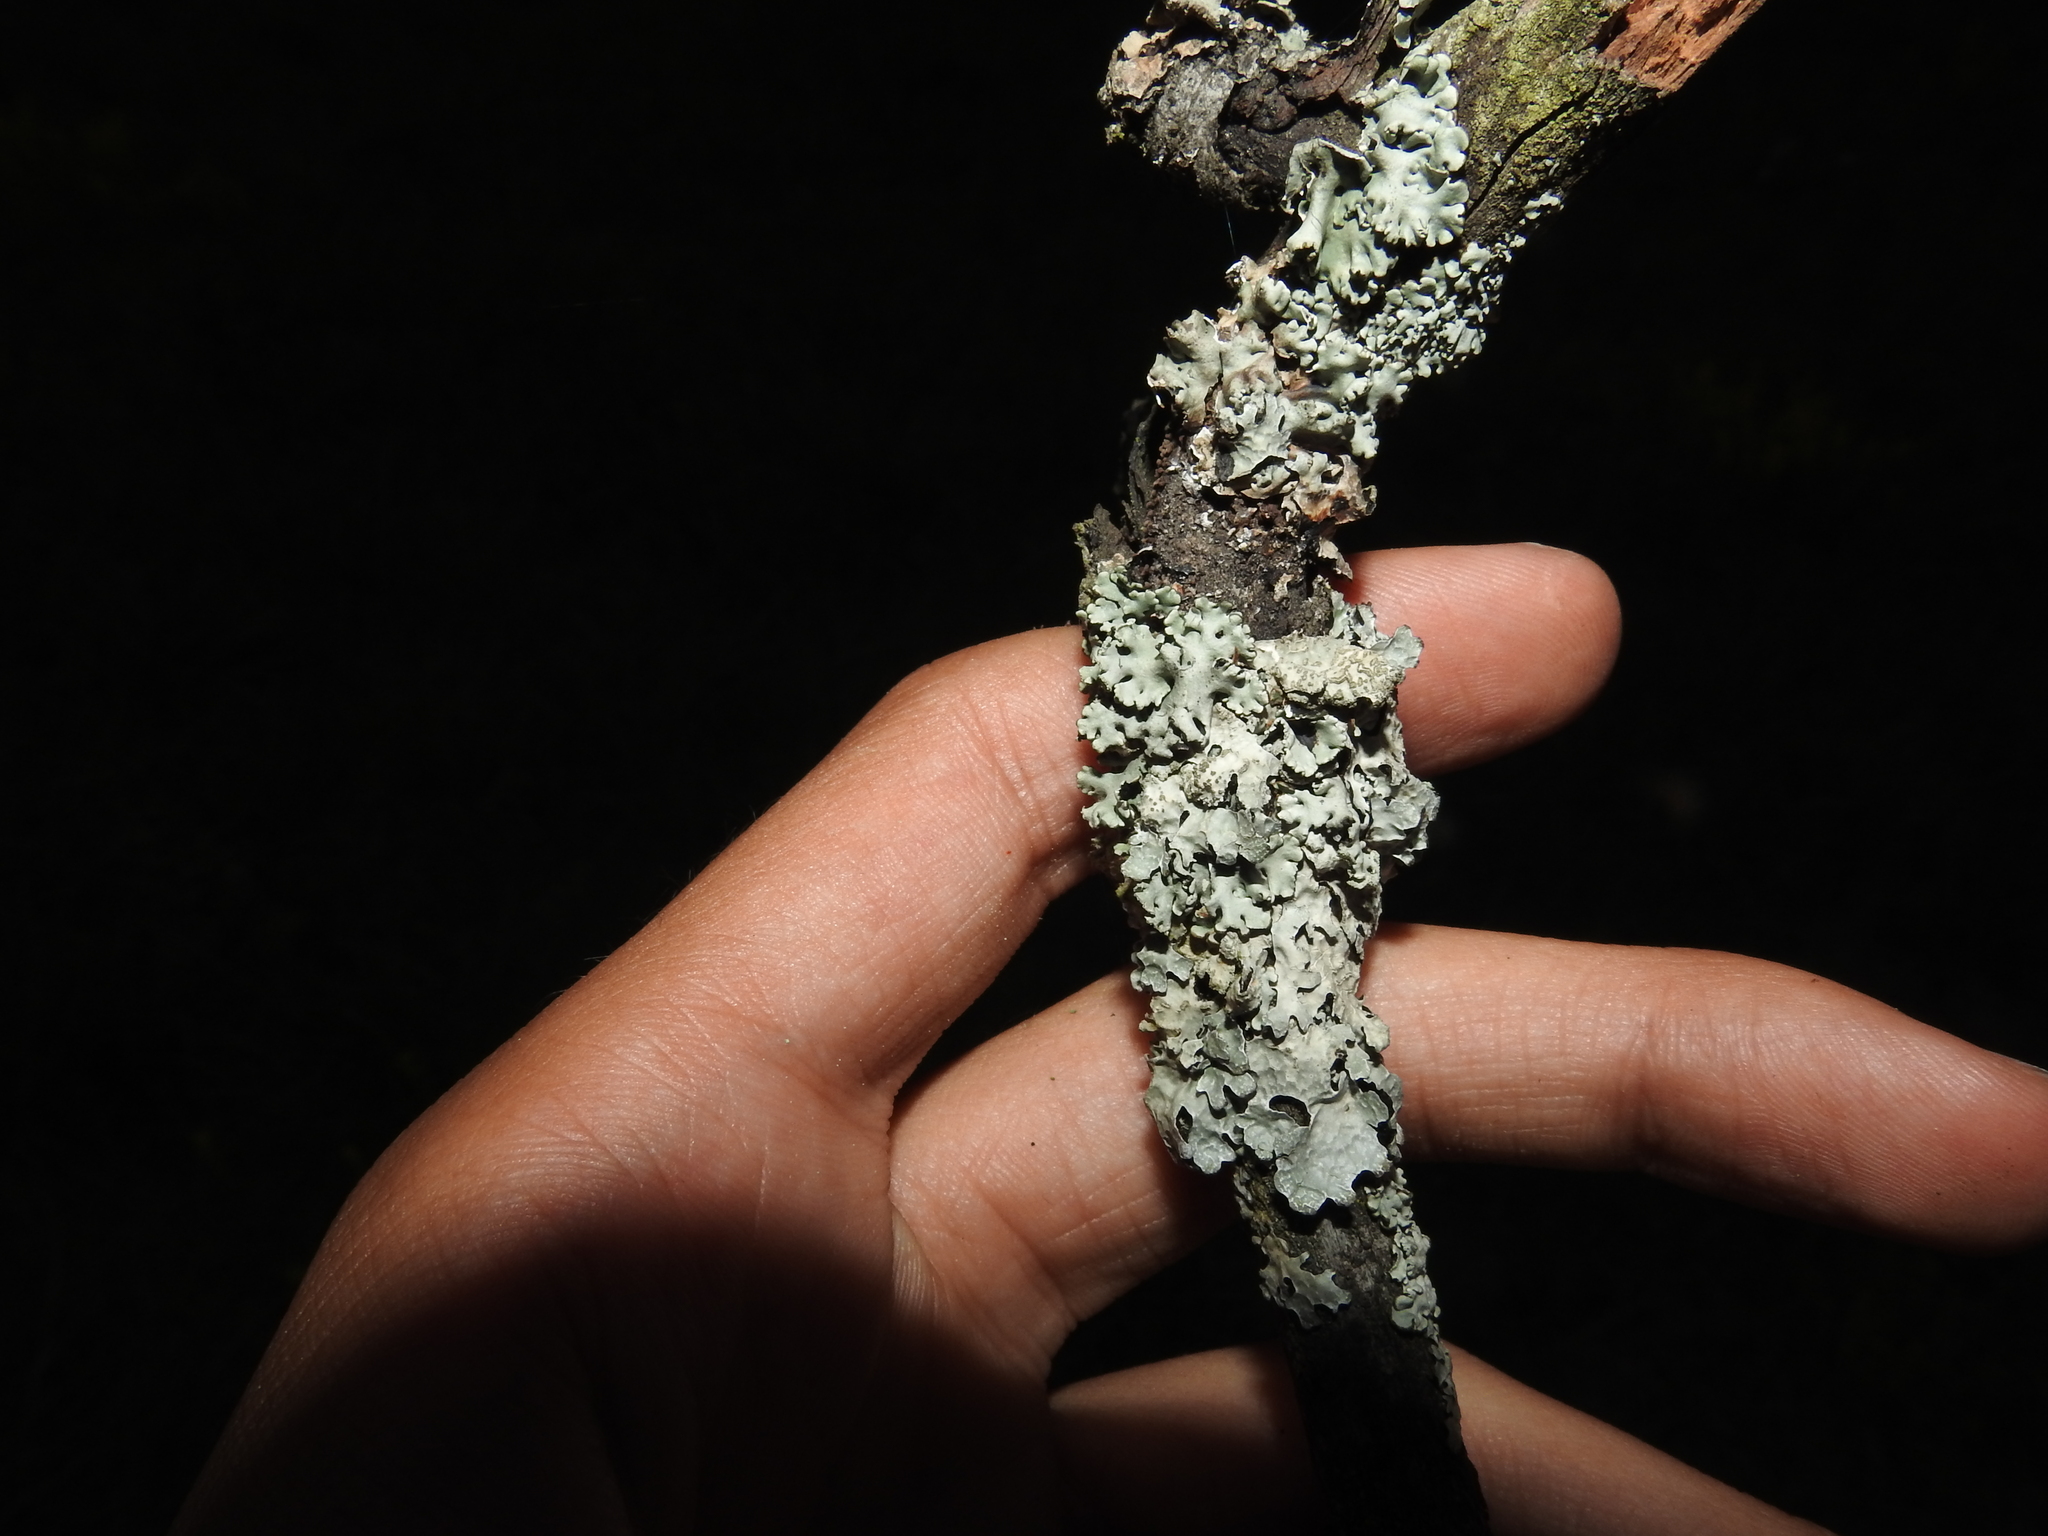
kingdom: Fungi
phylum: Ascomycota
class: Lecanoromycetes
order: Lecanorales
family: Parmeliaceae
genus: Hypogymnia
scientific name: Hypogymnia physodes
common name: Dark crottle
